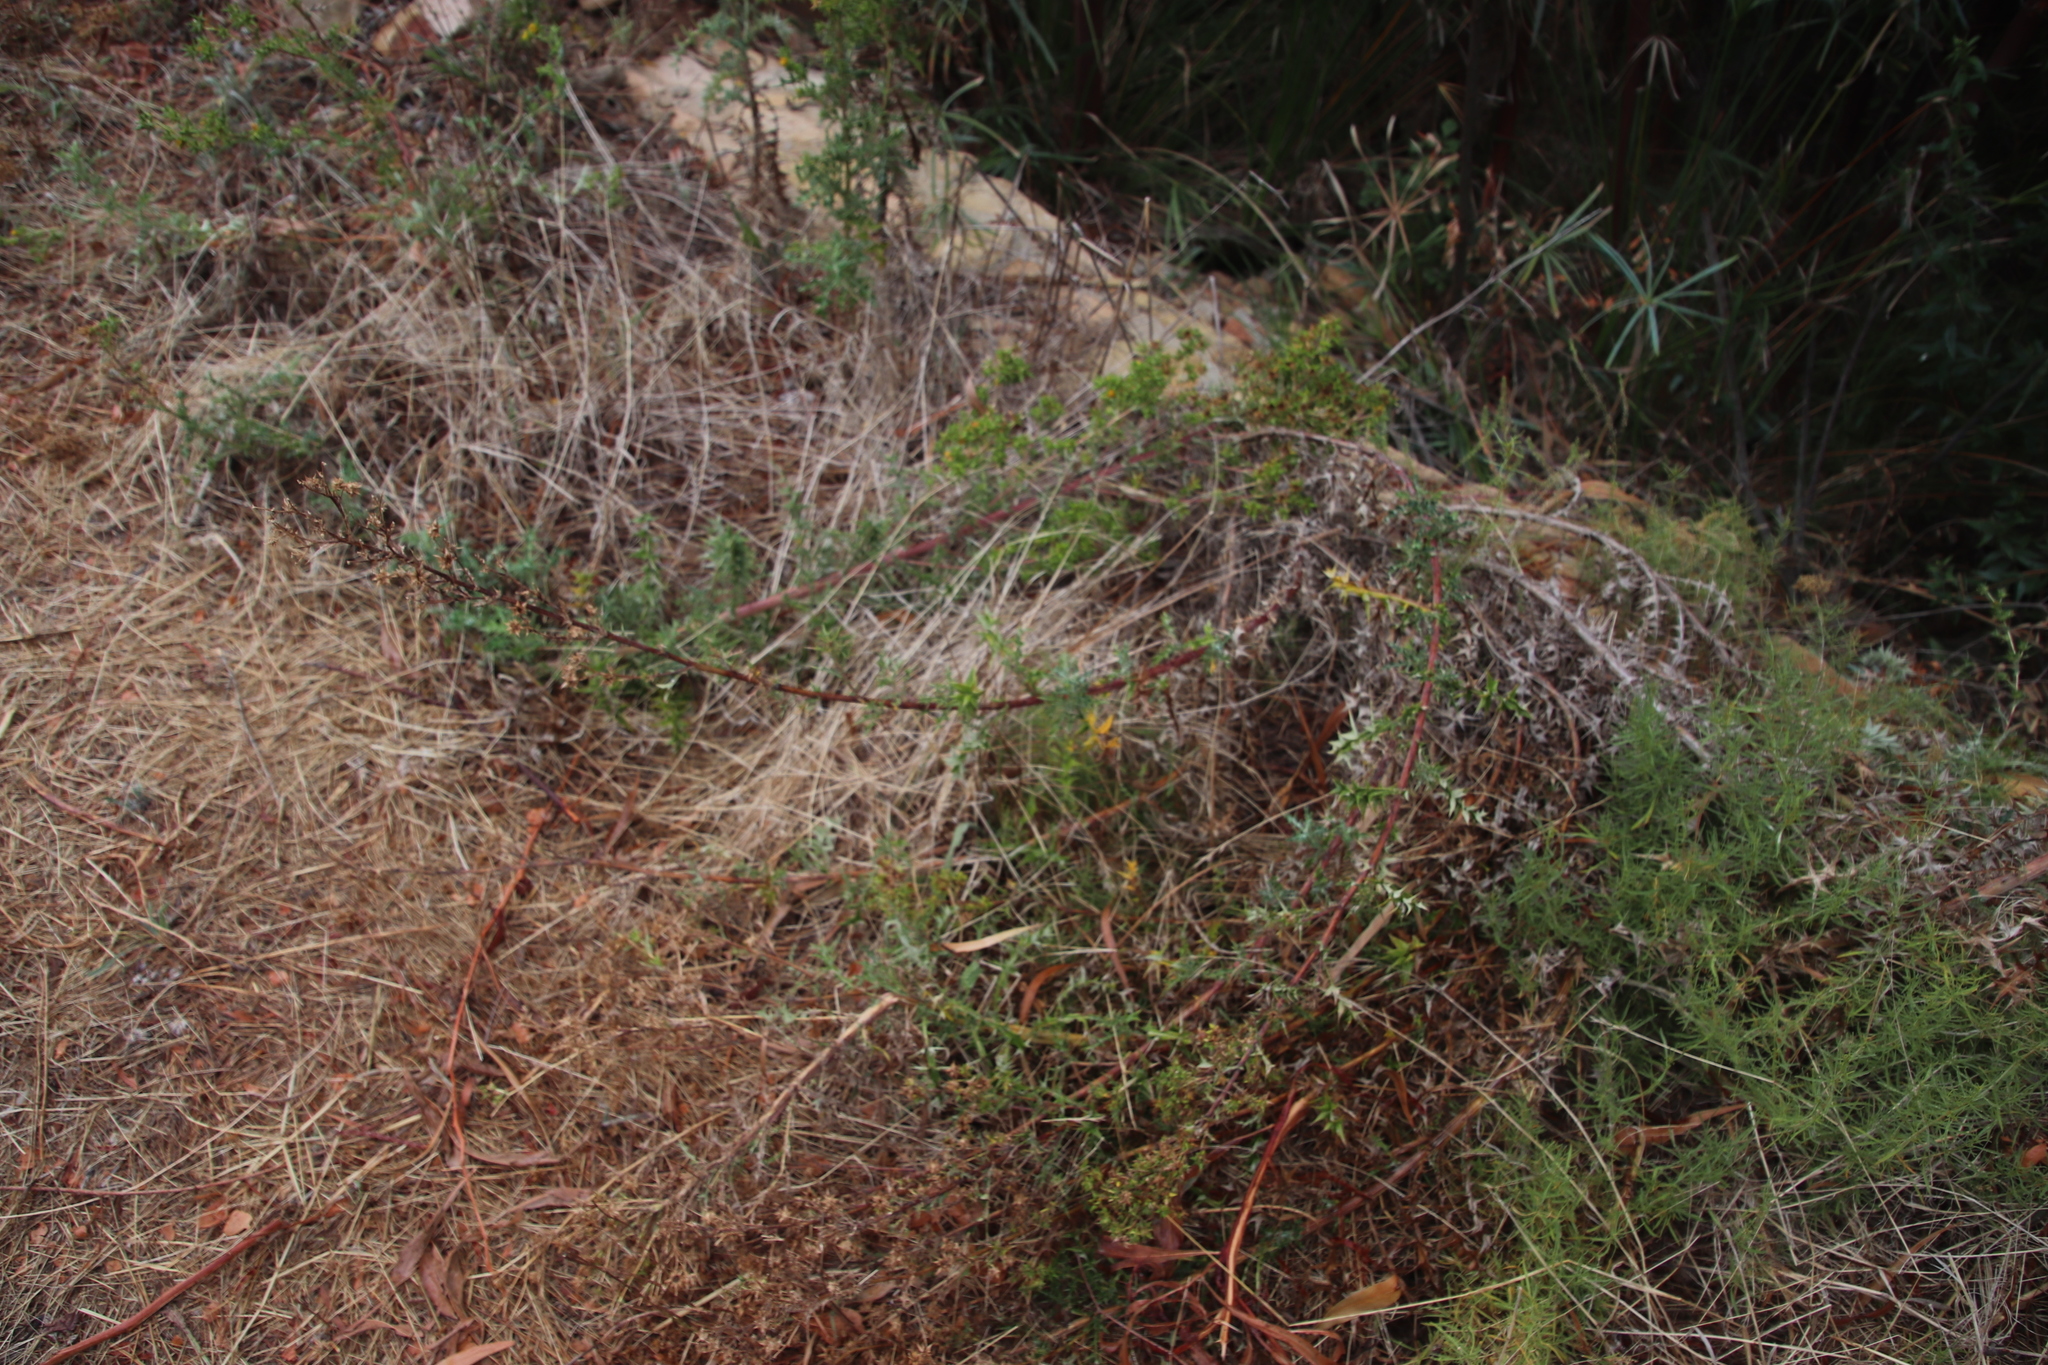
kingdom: Plantae
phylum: Tracheophyta
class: Magnoliopsida
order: Asterales
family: Asteraceae
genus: Berkheya
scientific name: Berkheya rigida
